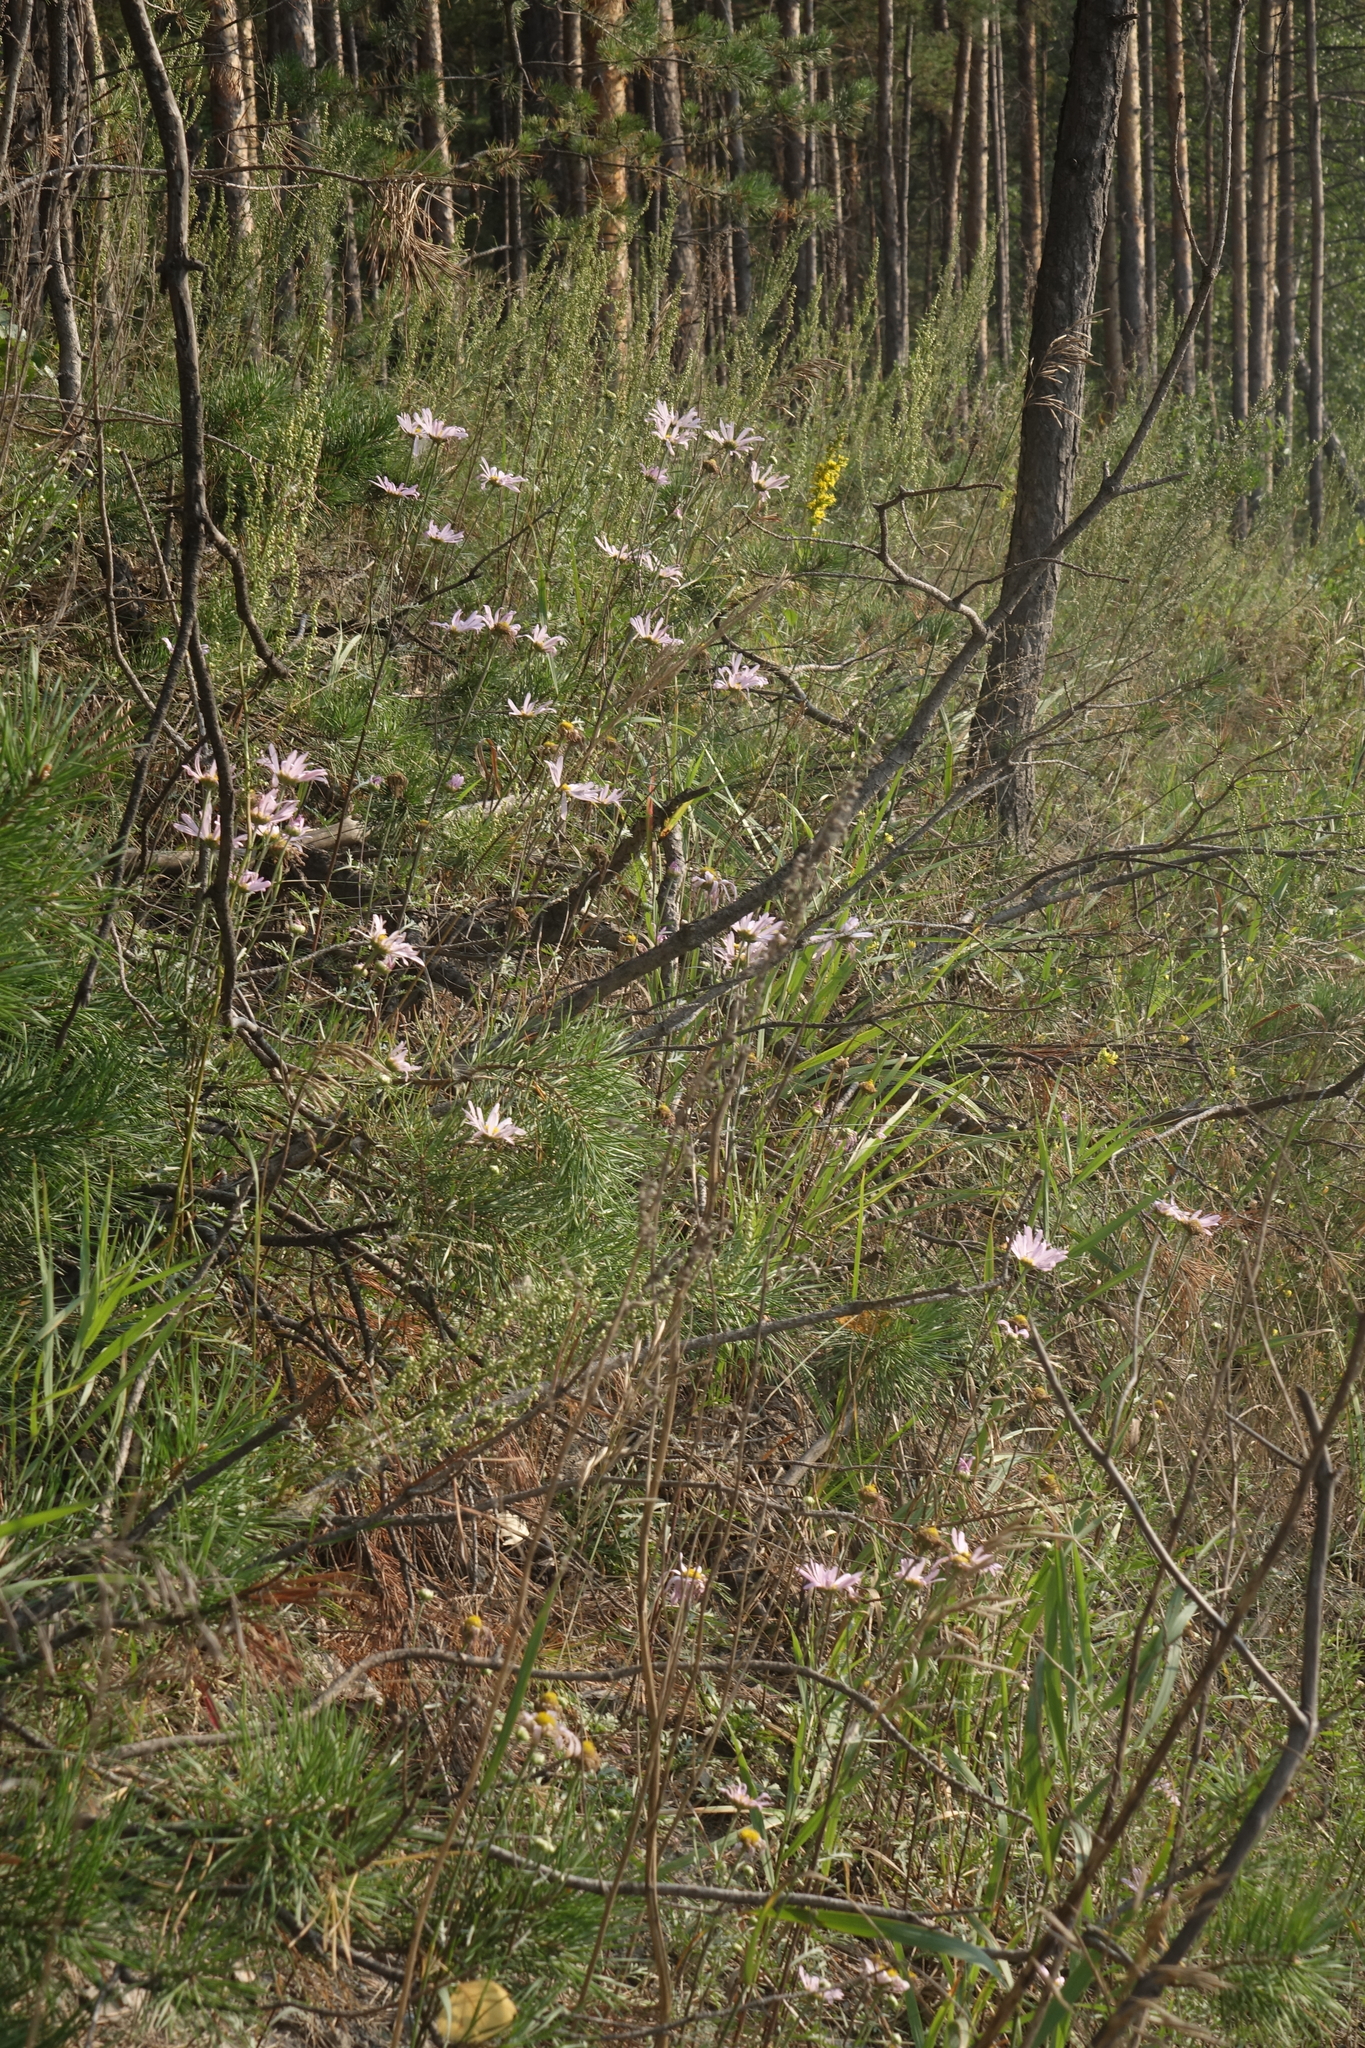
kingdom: Plantae
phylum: Tracheophyta
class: Magnoliopsida
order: Asterales
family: Asteraceae
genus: Chrysanthemum
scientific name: Chrysanthemum zawadzkii
